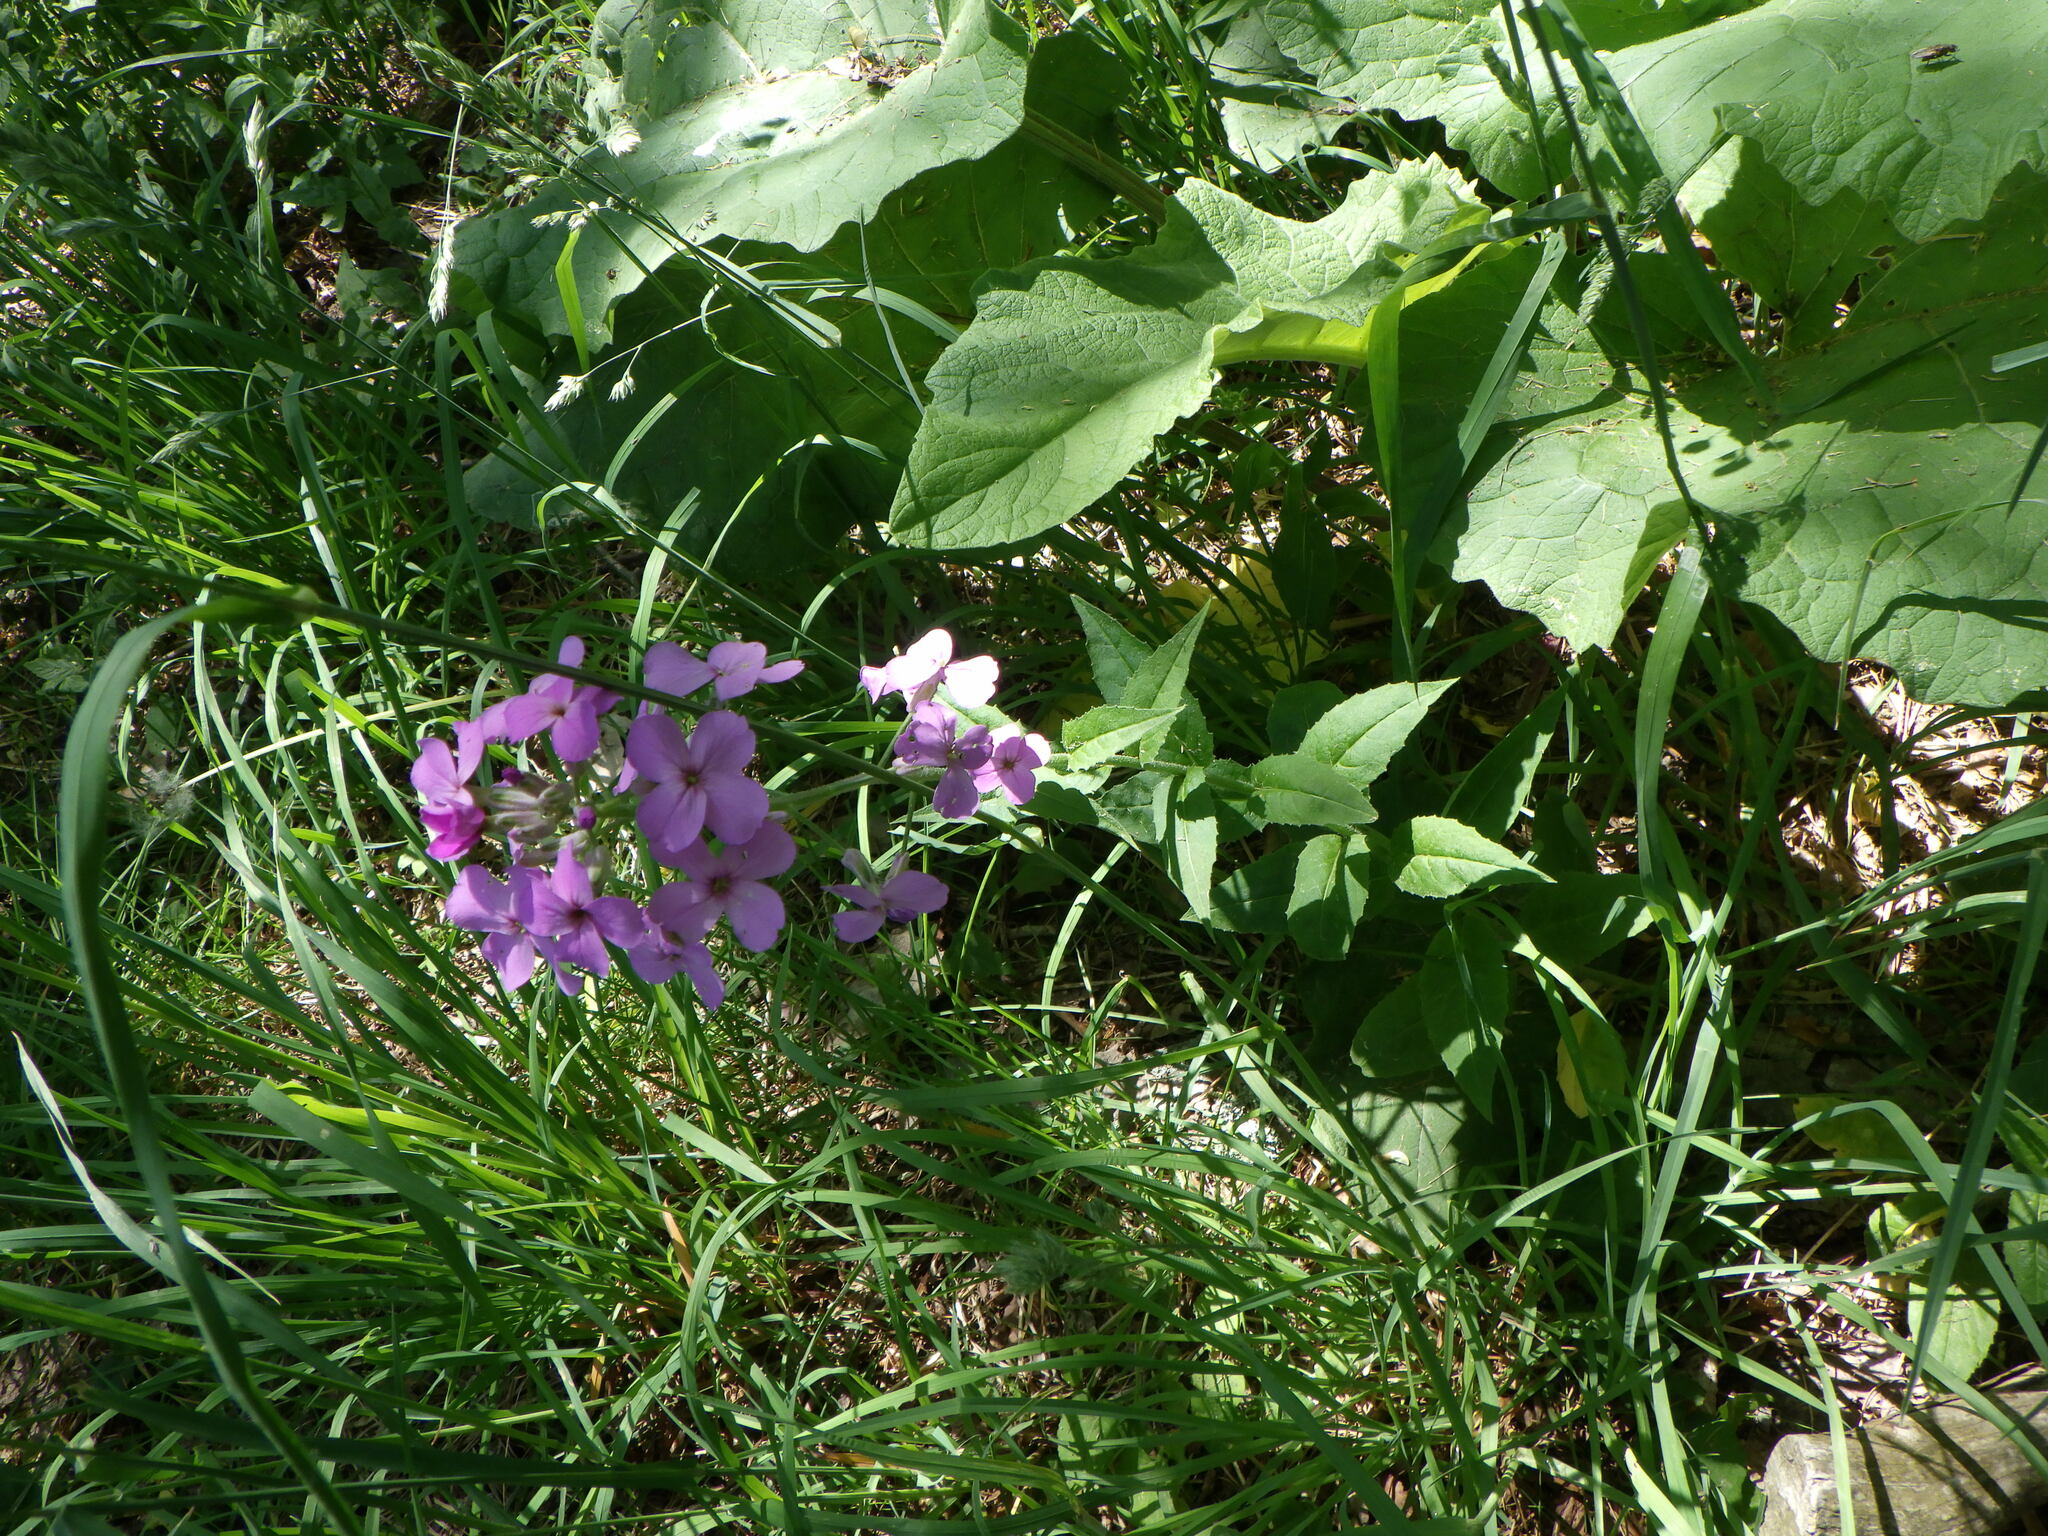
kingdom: Plantae
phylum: Tracheophyta
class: Magnoliopsida
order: Brassicales
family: Brassicaceae
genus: Hesperis
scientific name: Hesperis matronalis
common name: Dame's-violet
